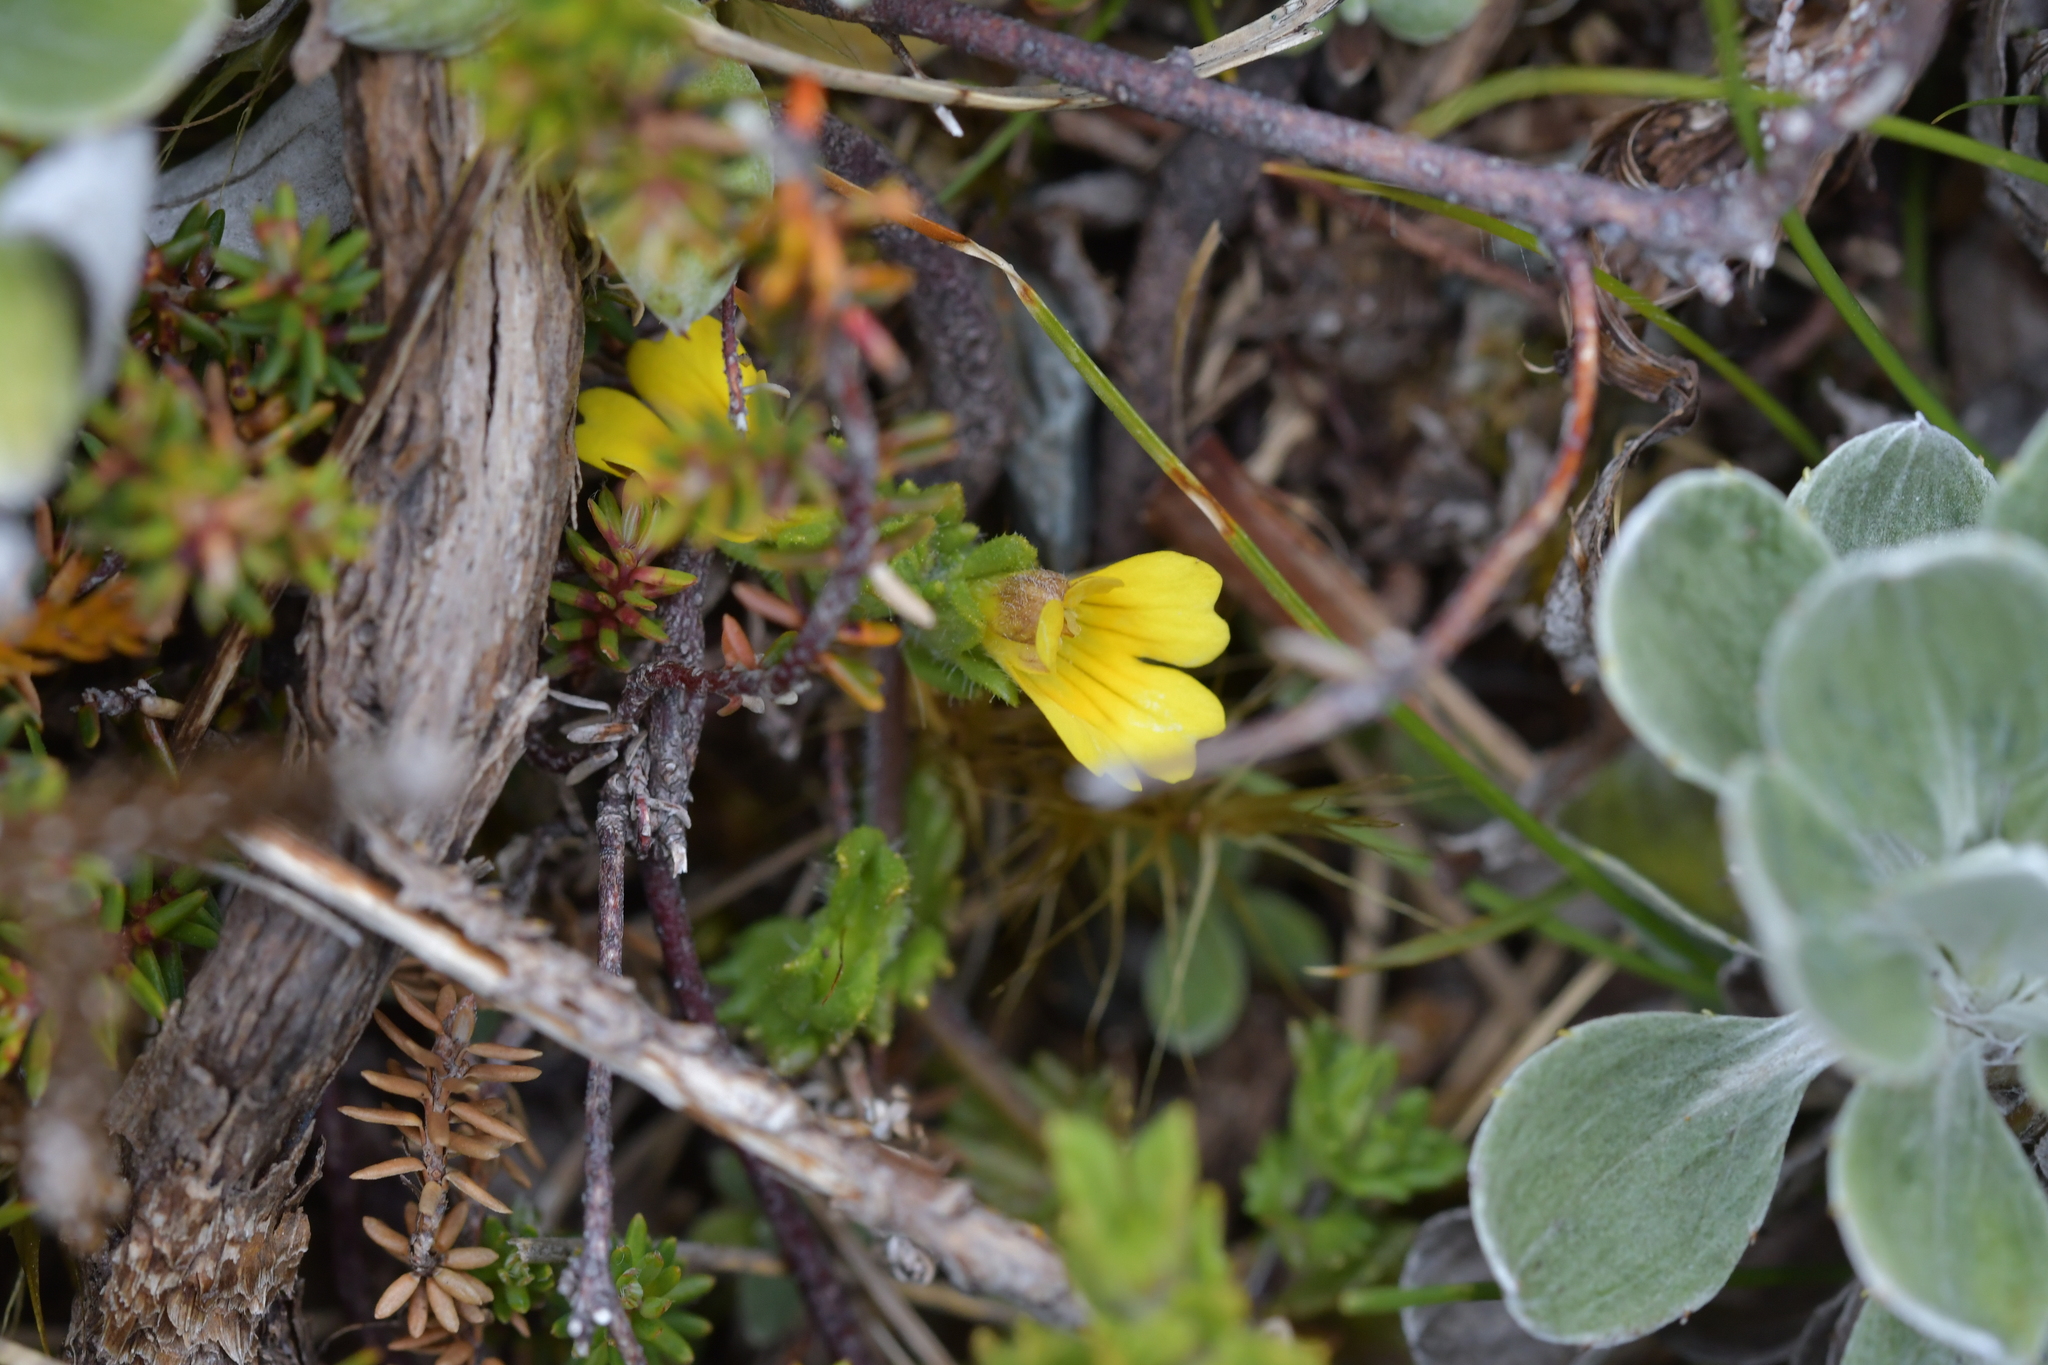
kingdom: Plantae
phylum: Tracheophyta
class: Magnoliopsida
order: Lamiales
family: Orobanchaceae
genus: Euphrasia
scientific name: Euphrasia cockayneana
